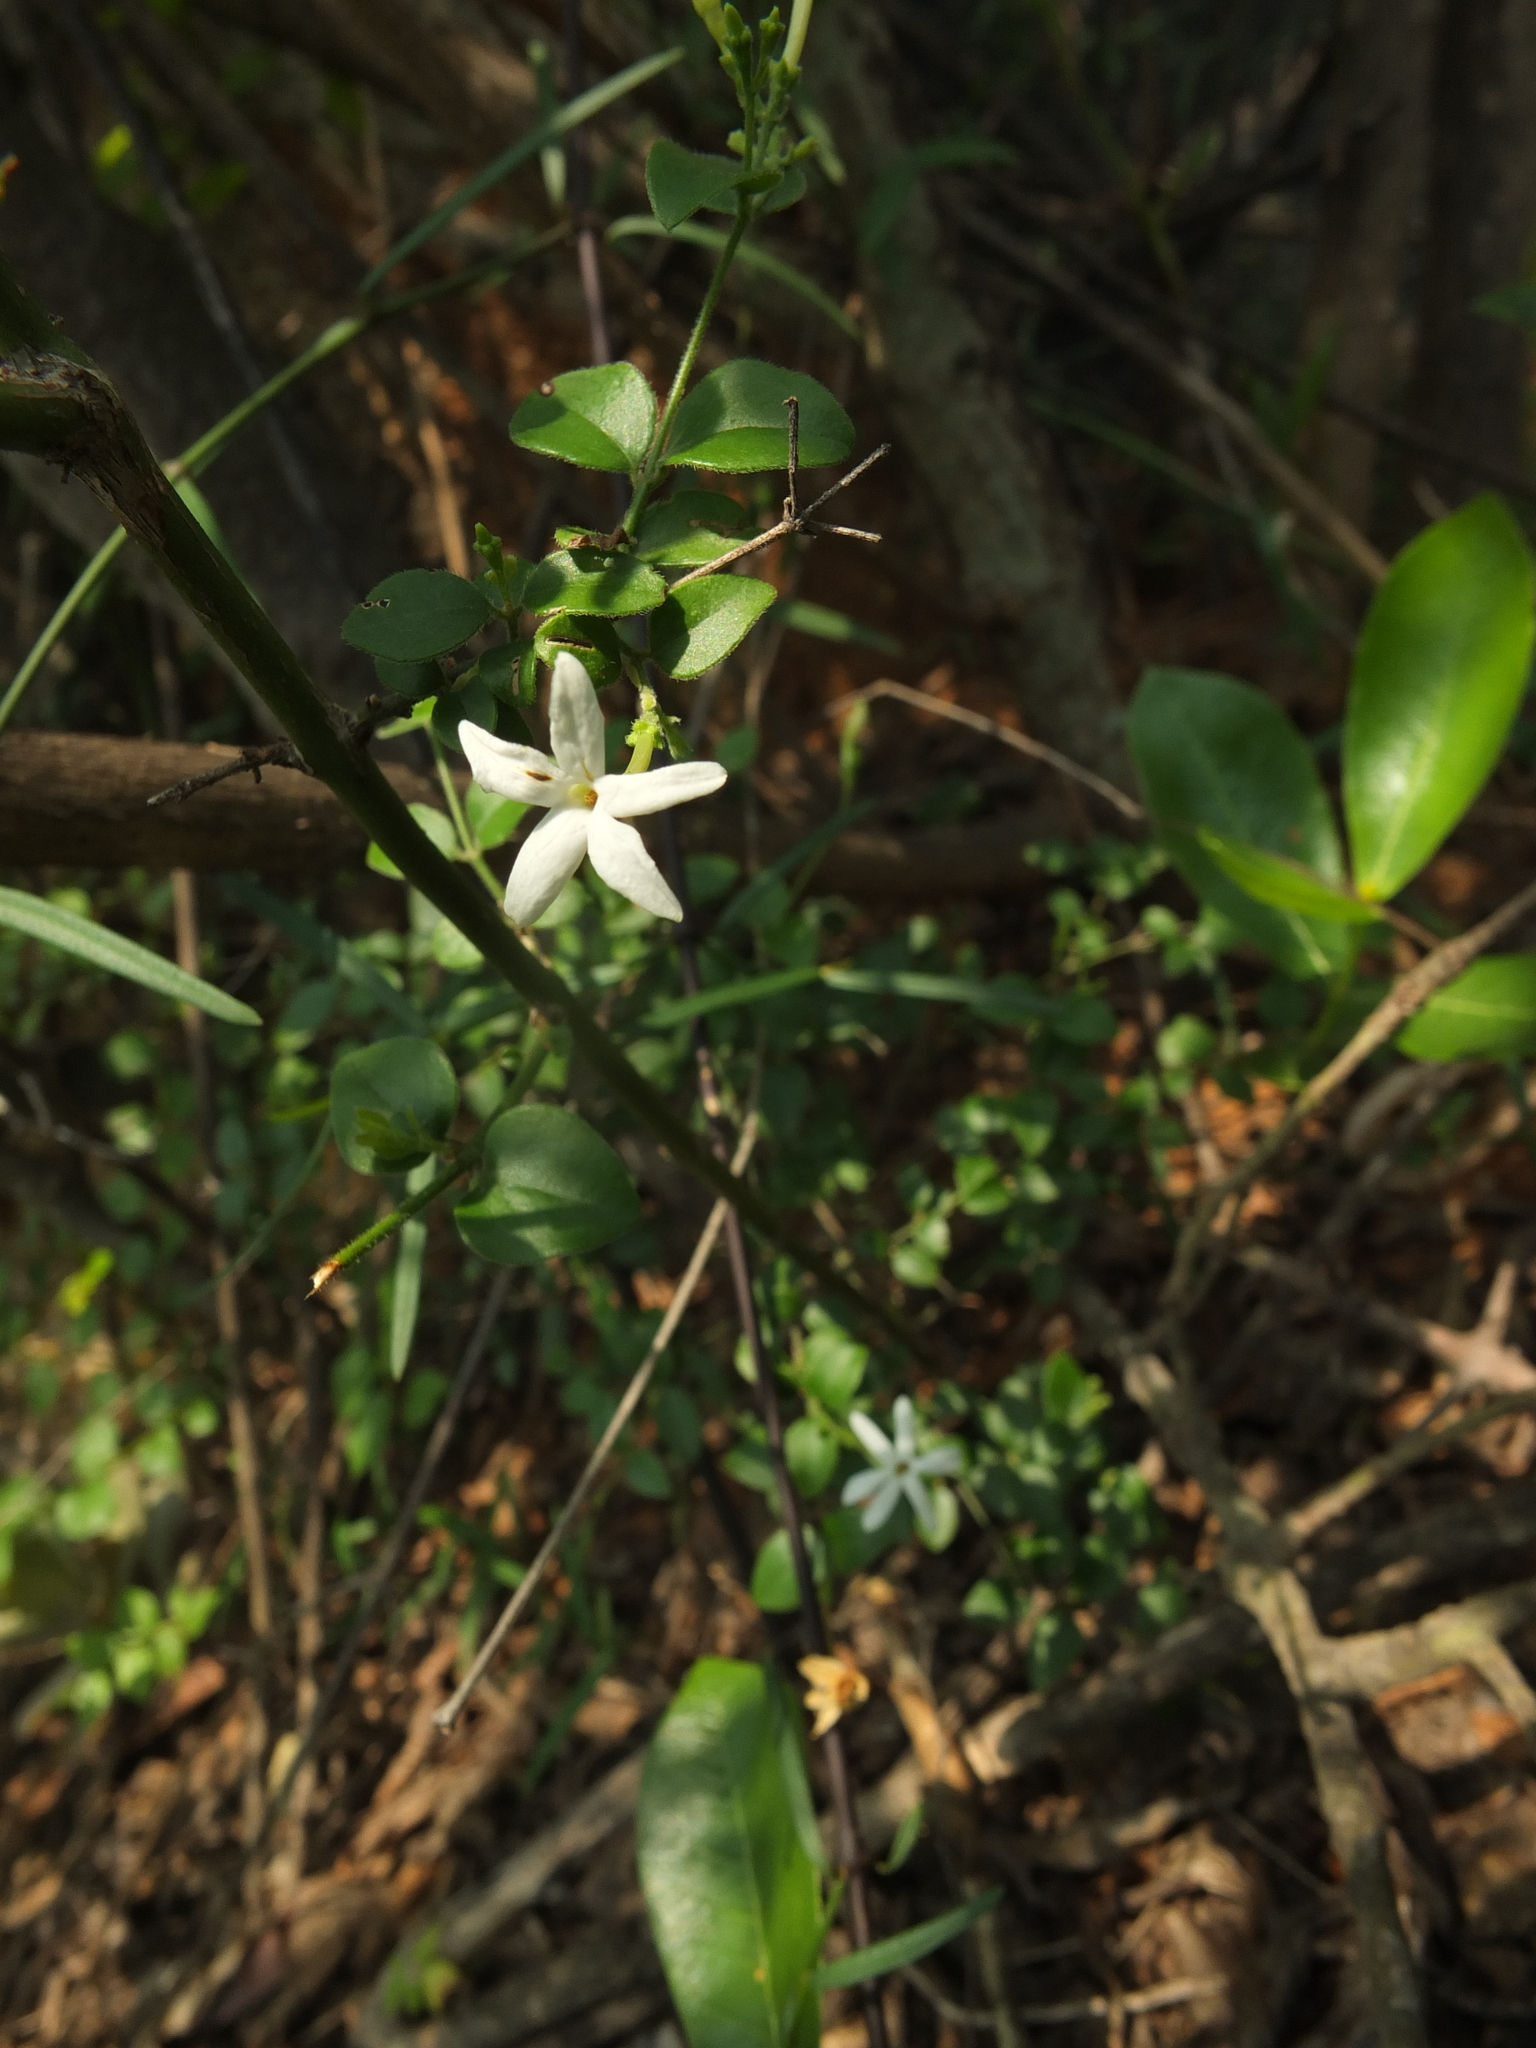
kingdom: Plantae
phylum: Tracheophyta
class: Magnoliopsida
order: Lamiales
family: Oleaceae
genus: Jasminum
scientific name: Jasminum auriculatum
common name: Needle-flower jasmine
